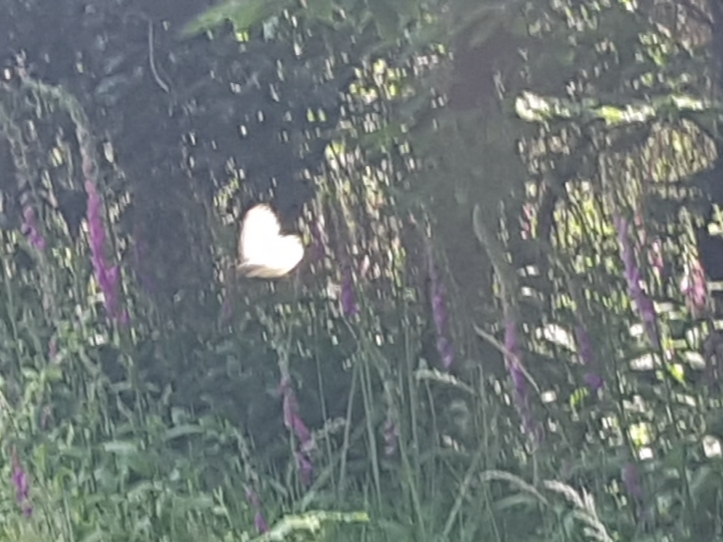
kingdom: Animalia
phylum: Arthropoda
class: Insecta
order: Lepidoptera
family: Pieridae
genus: Aporia
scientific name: Aporia crataegi
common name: Black-veined white
